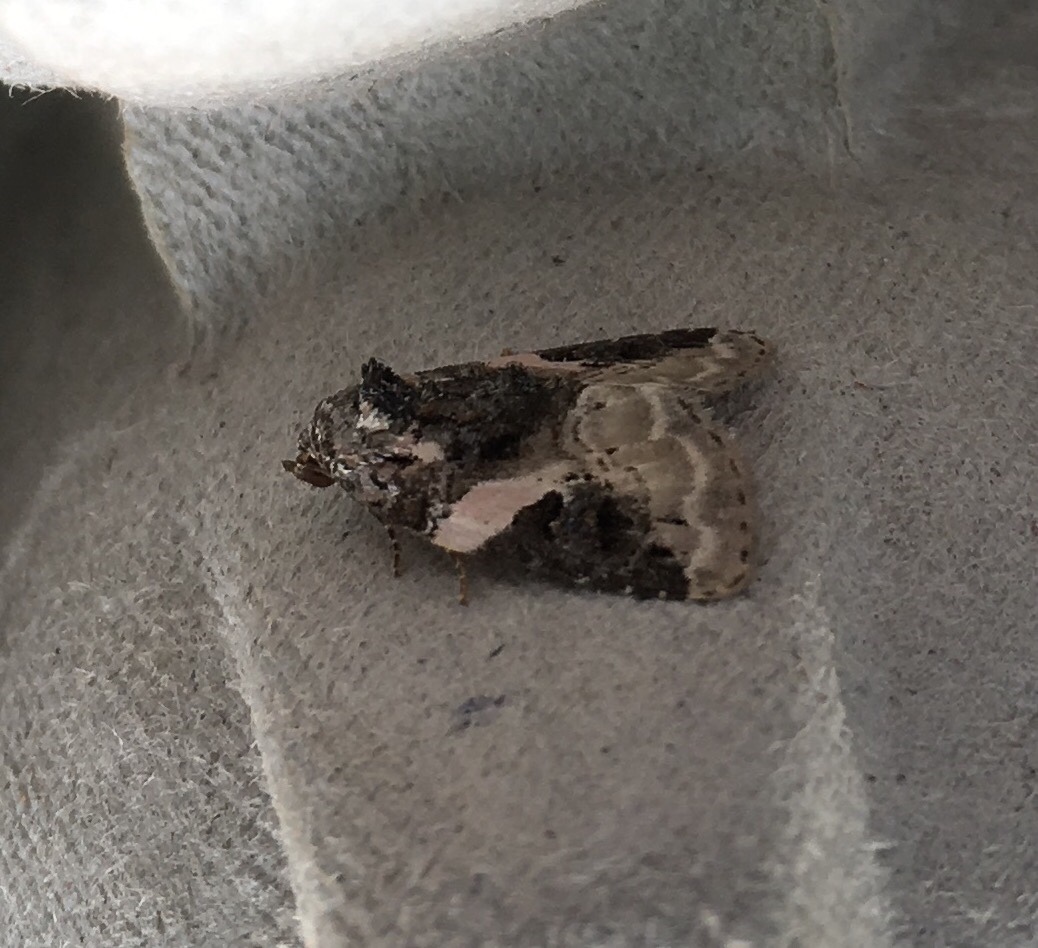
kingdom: Animalia
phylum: Arthropoda
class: Insecta
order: Lepidoptera
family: Noctuidae
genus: Pseudeustrotia
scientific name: Pseudeustrotia carneola
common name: Pink-barred lithacodia moth
